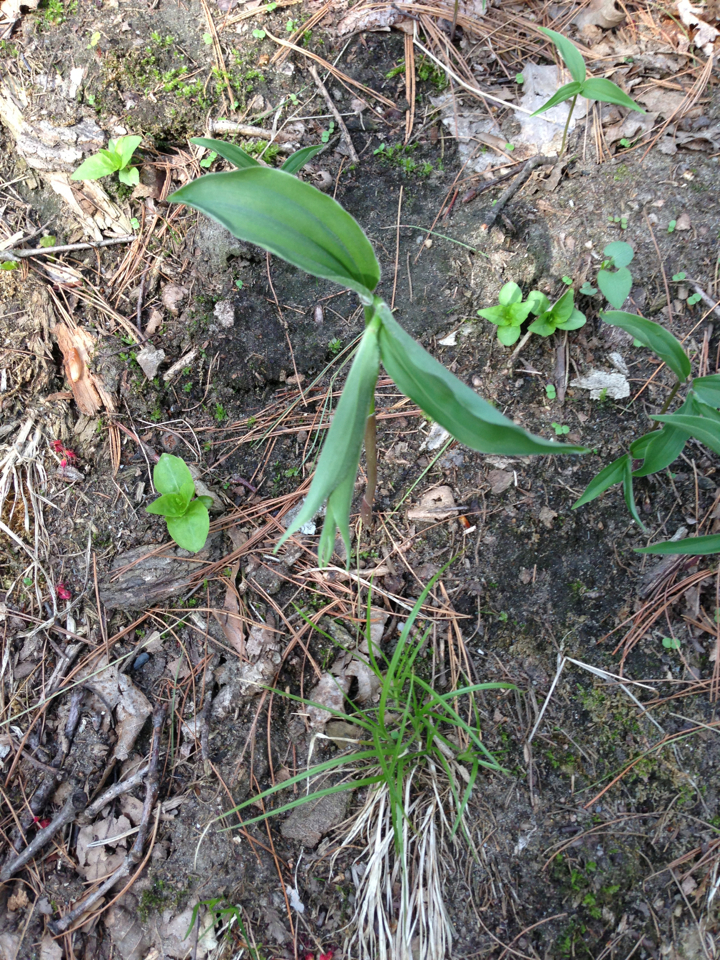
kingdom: Plantae
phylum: Tracheophyta
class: Liliopsida
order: Asparagales
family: Asparagaceae
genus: Maianthemum
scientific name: Maianthemum racemosum
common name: False spikenard
